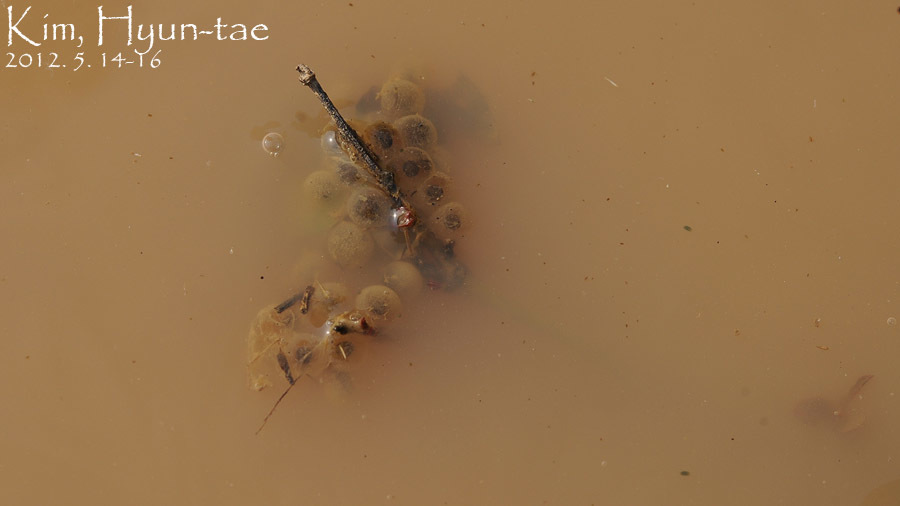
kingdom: Animalia
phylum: Chordata
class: Amphibia
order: Anura
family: Bombinatoridae
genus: Bombina
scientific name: Bombina orientalis
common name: Oriental firebelly toad
